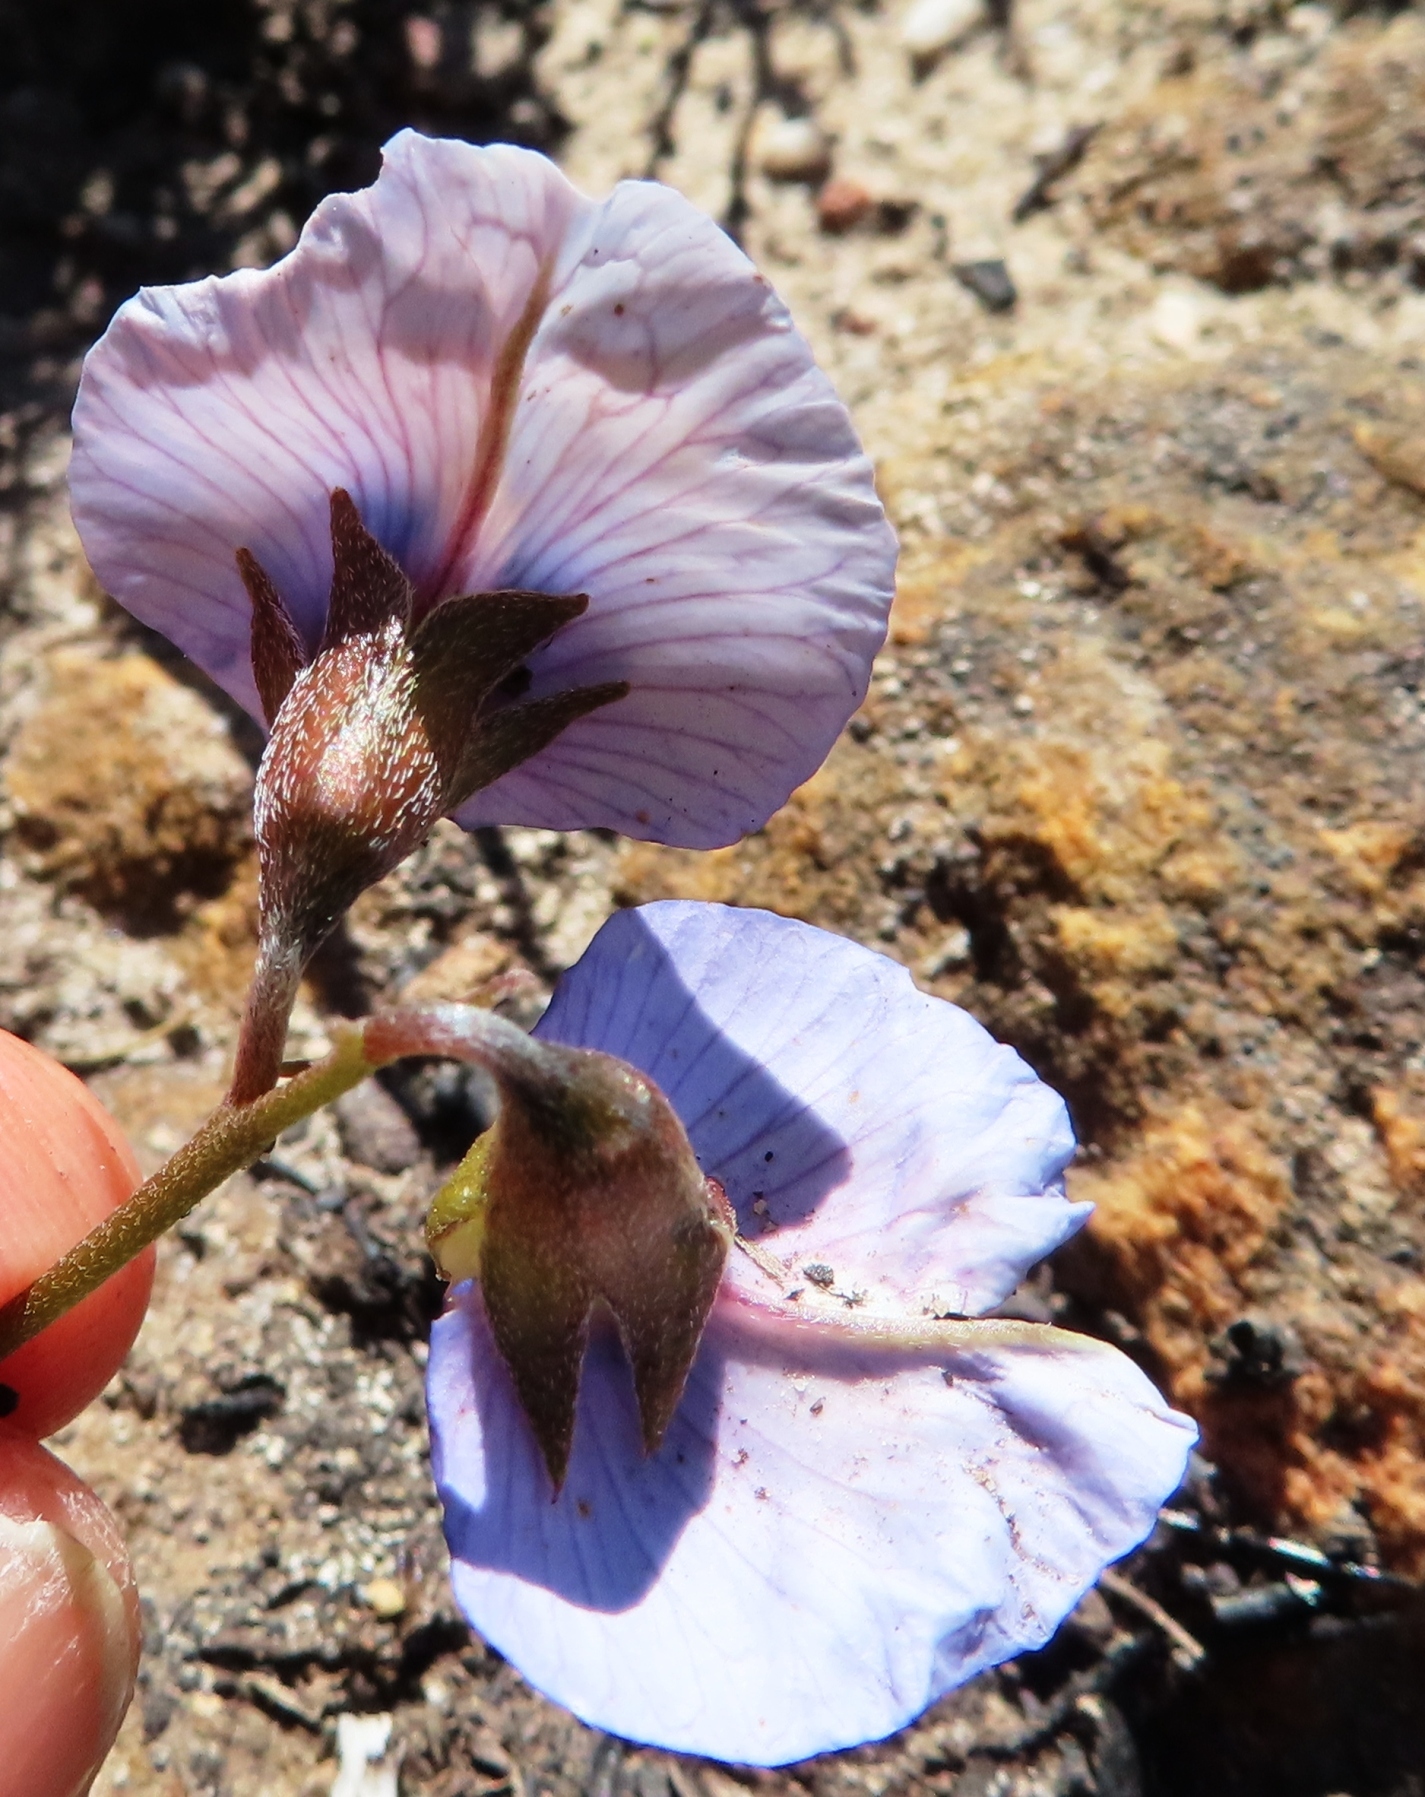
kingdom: Plantae
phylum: Tracheophyta
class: Magnoliopsida
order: Fabales
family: Fabaceae
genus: Lotononis
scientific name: Lotononis varia
